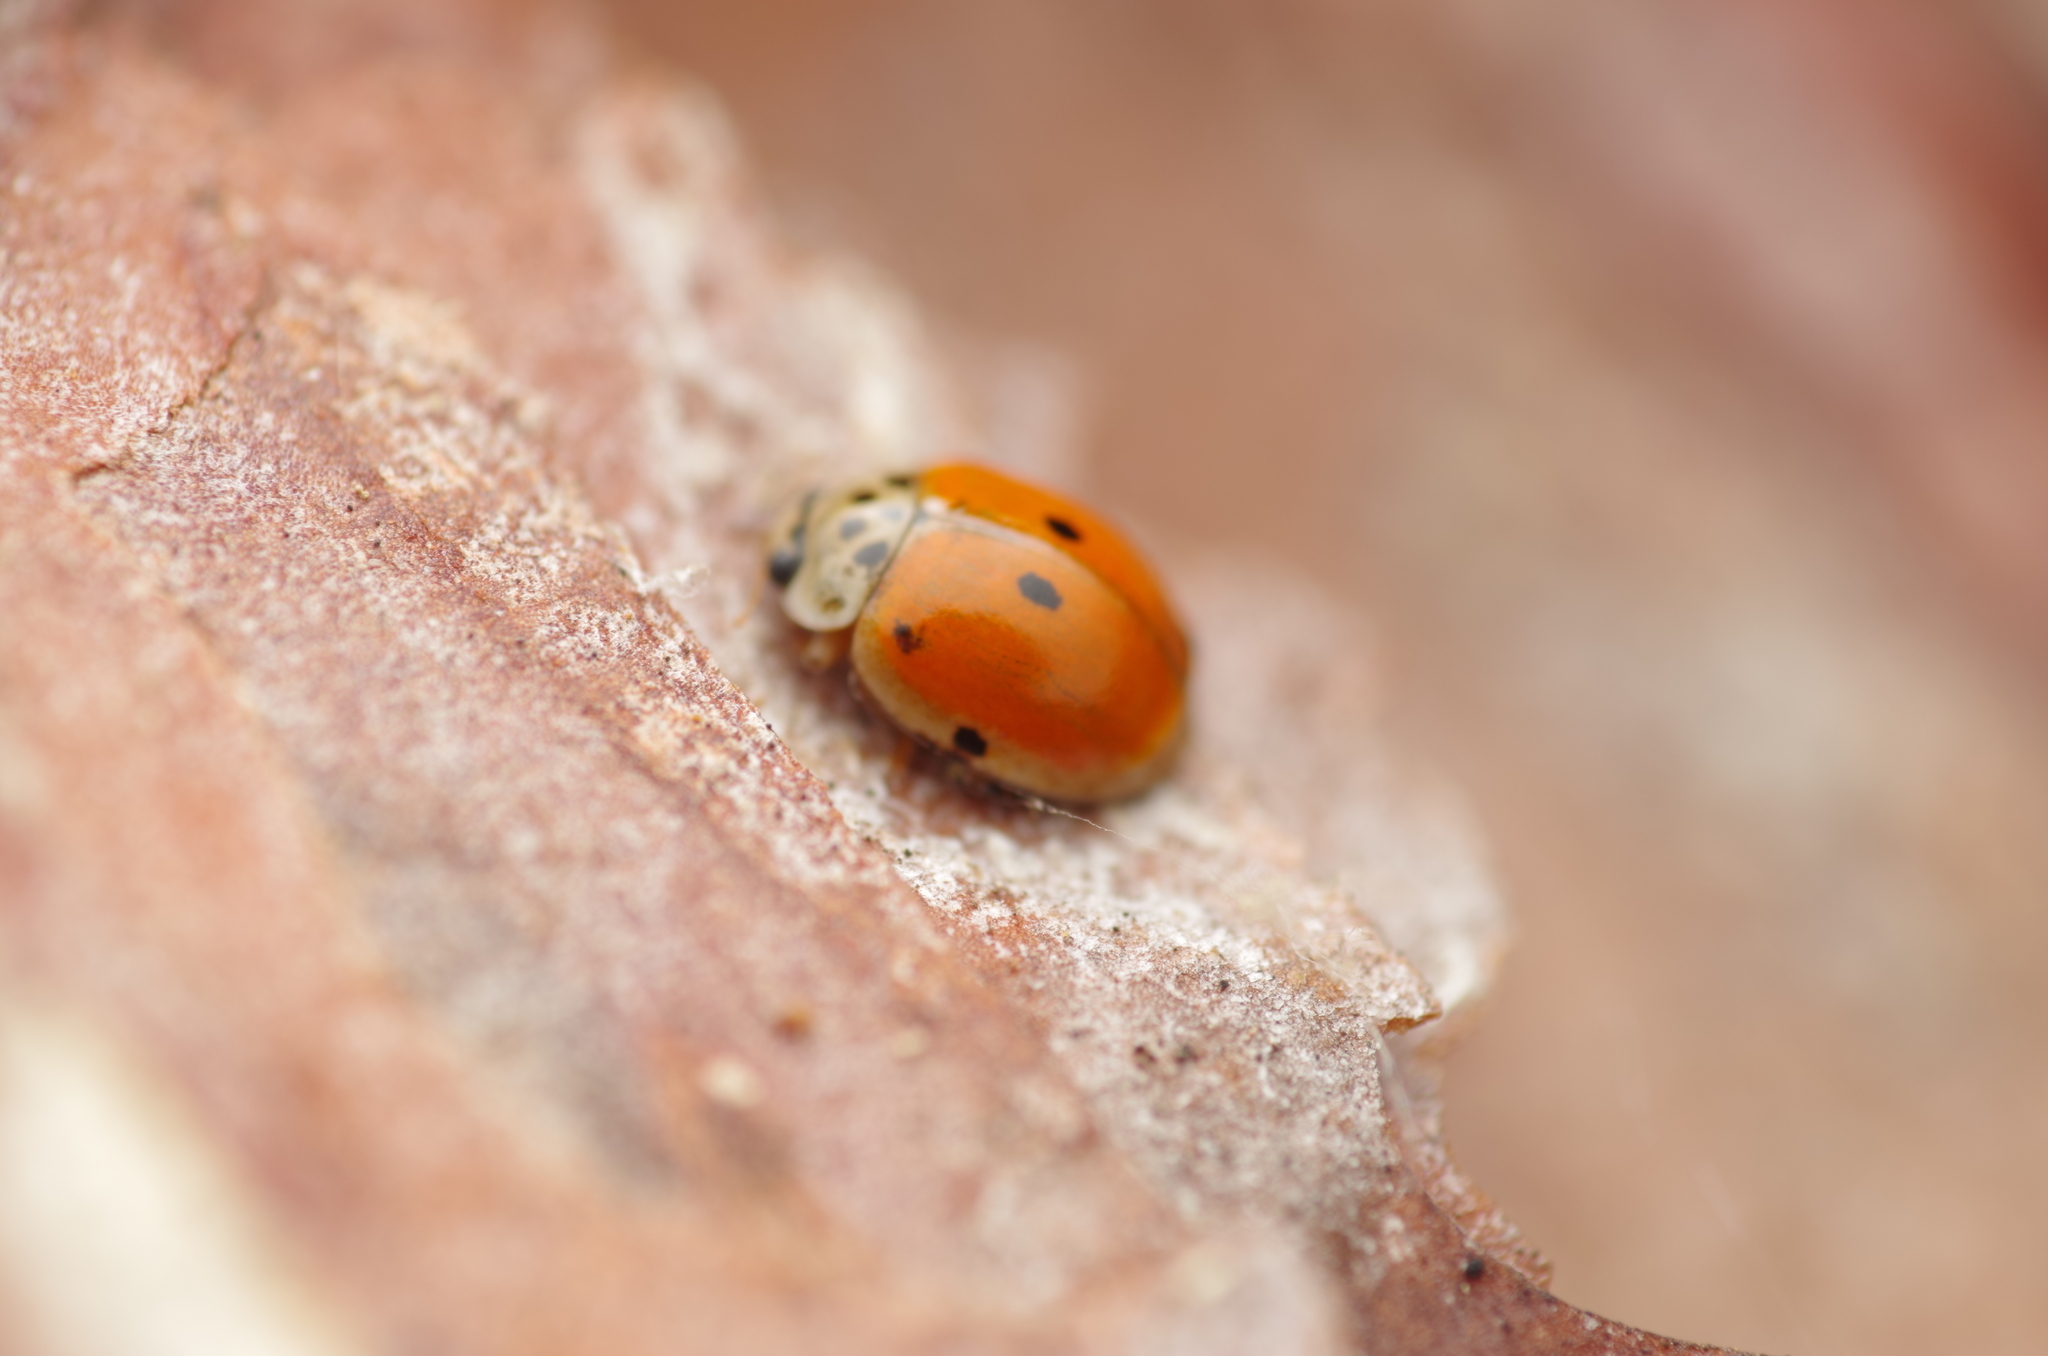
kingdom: Animalia
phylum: Arthropoda
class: Insecta
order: Coleoptera
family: Coccinellidae
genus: Adalia
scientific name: Adalia decempunctata
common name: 10-spot ladybird
